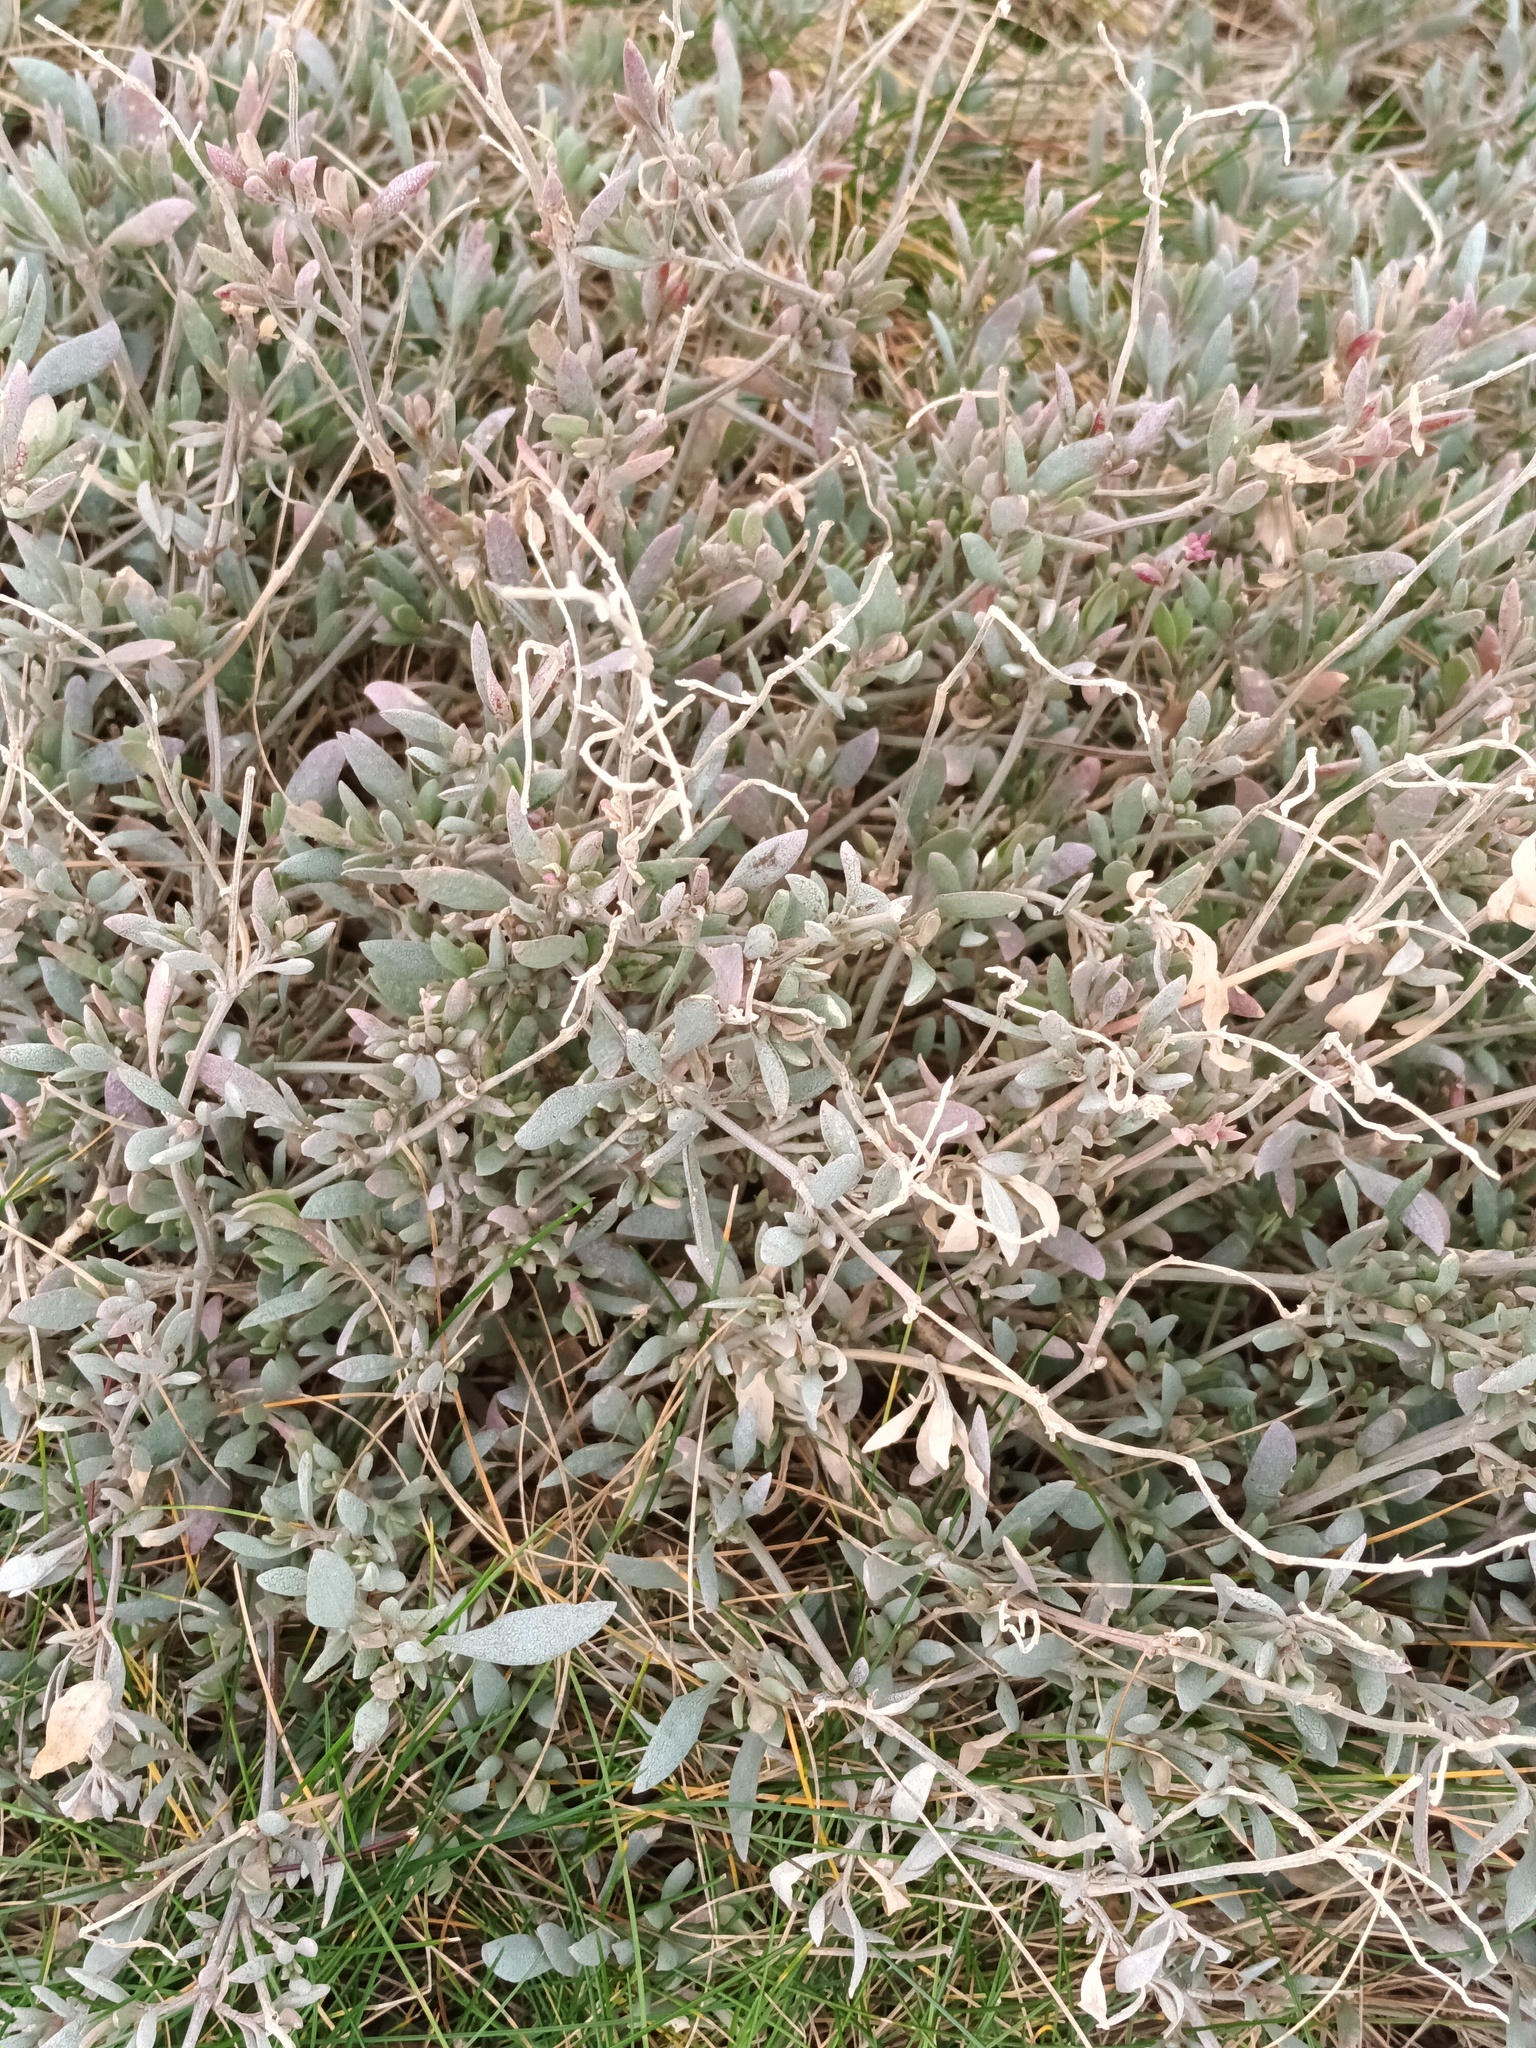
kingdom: Plantae
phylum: Tracheophyta
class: Magnoliopsida
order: Caryophyllales
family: Amaranthaceae
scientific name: Amaranthaceae
